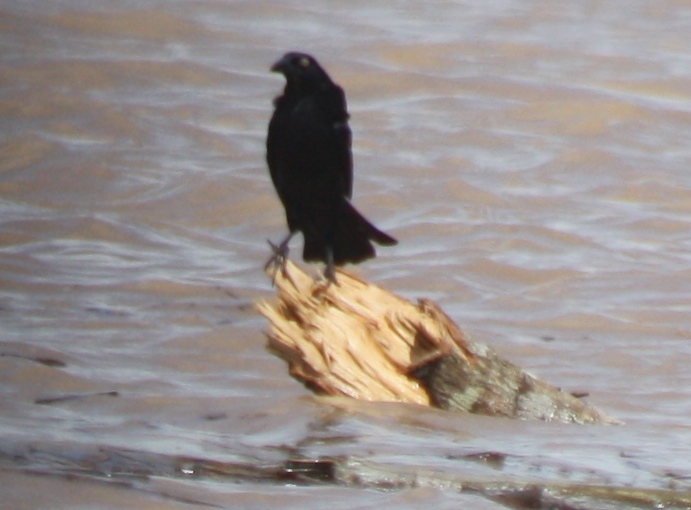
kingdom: Animalia
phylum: Chordata
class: Aves
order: Passeriformes
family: Icteridae
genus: Molothrus
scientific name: Molothrus oryzivorus
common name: Giant cowbird
